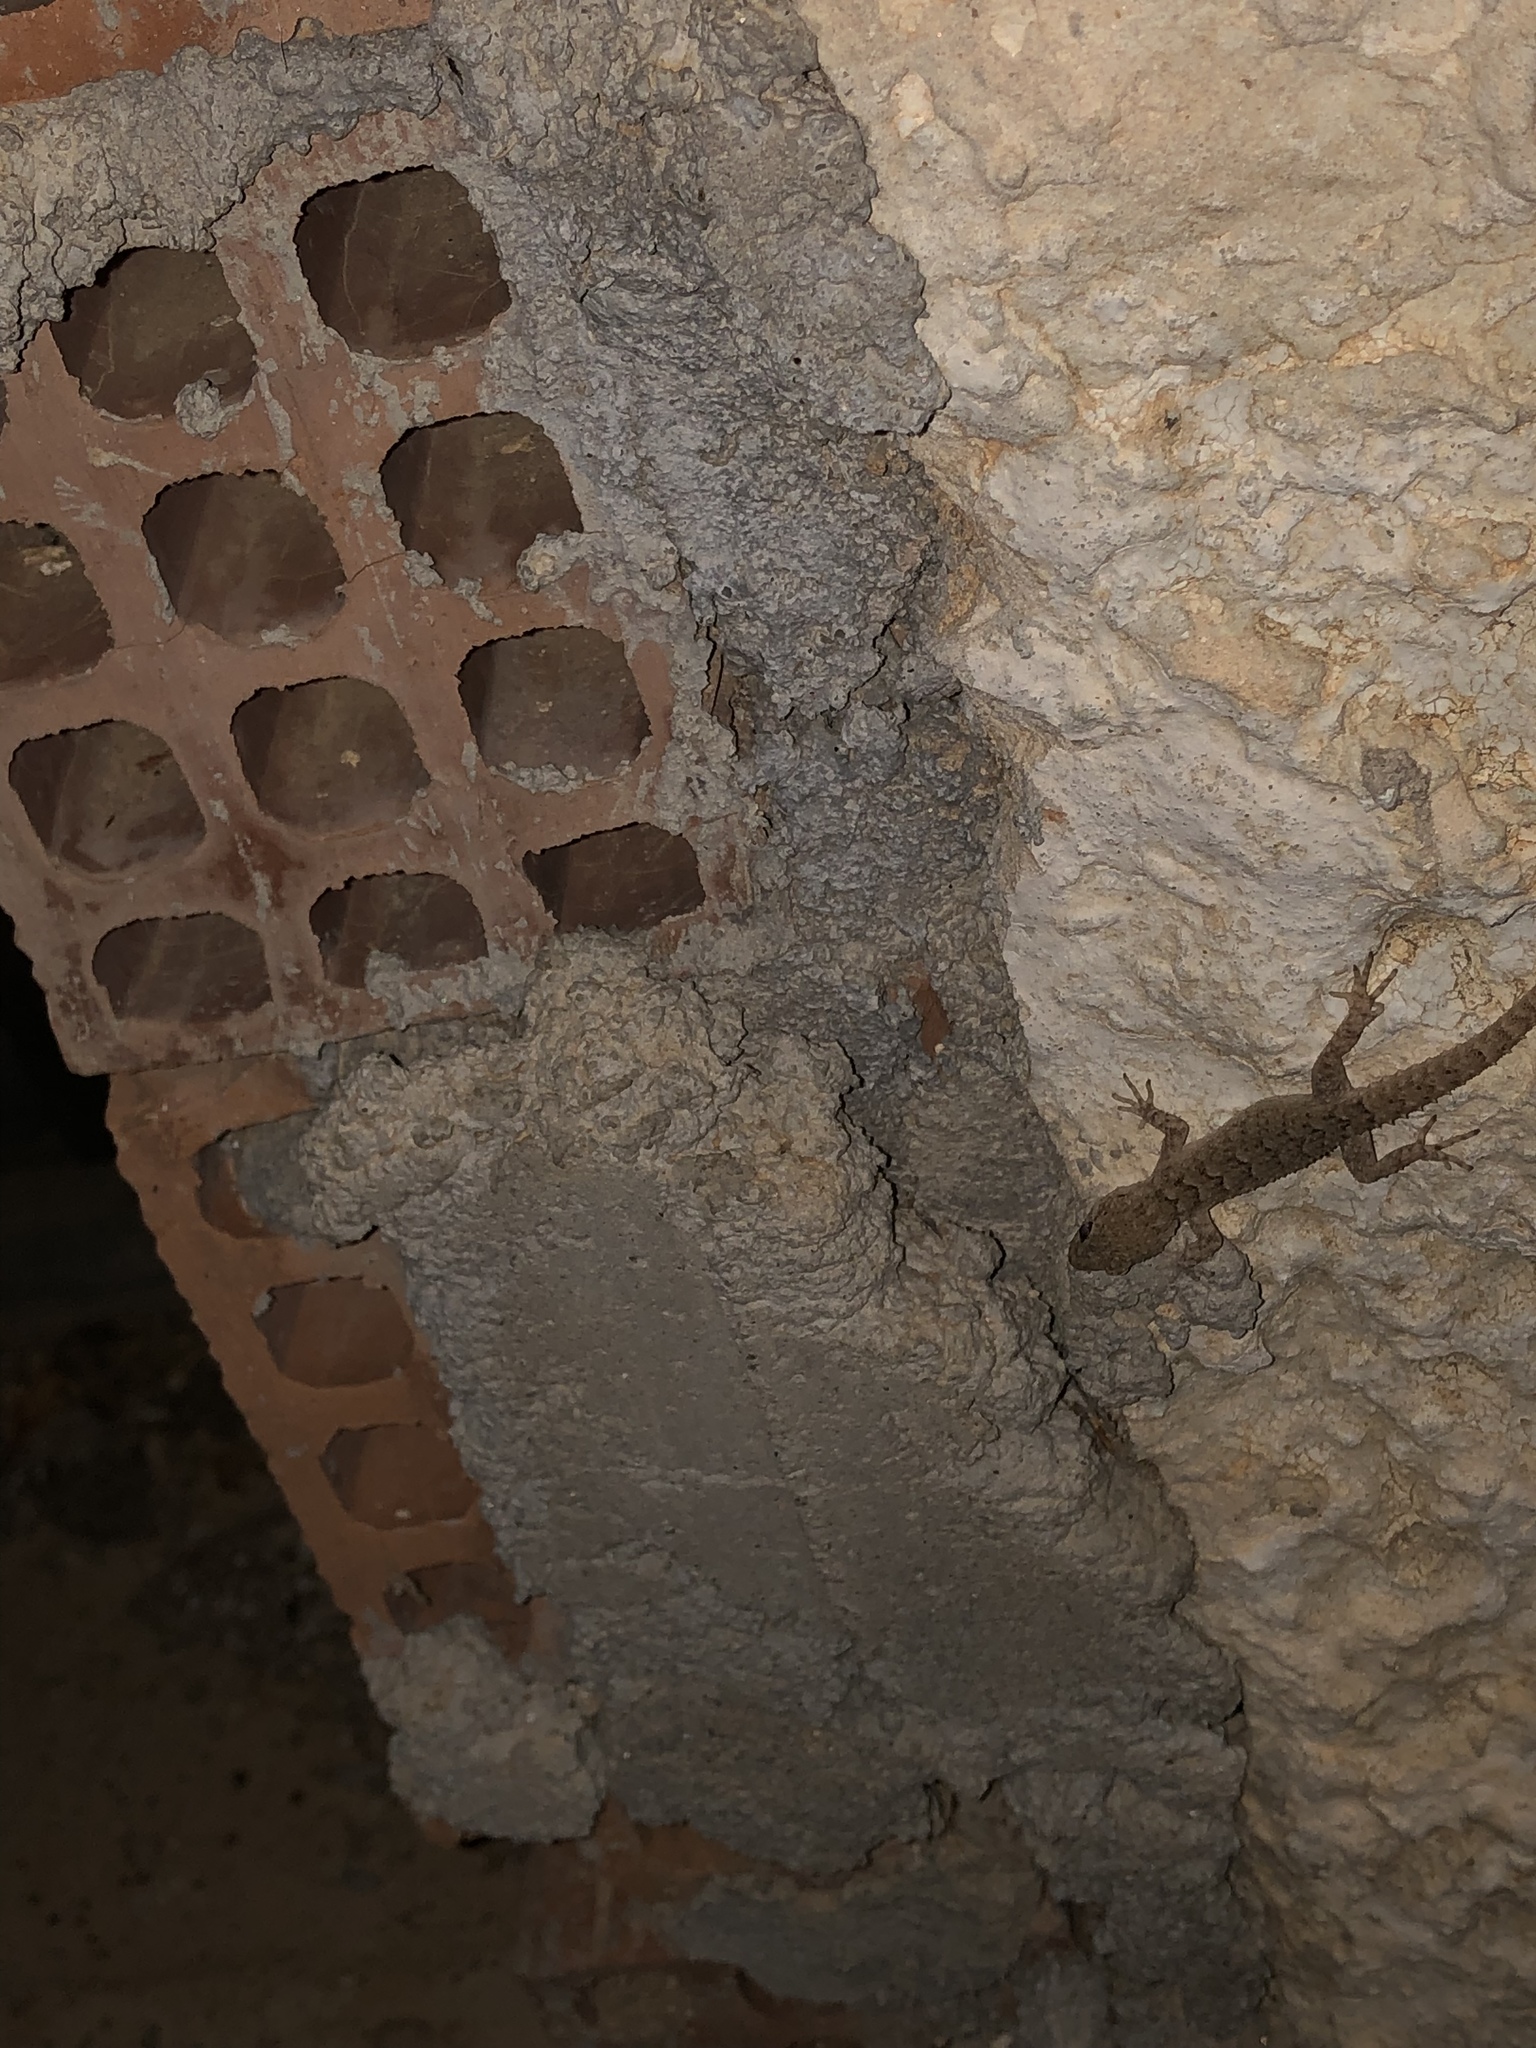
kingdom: Animalia
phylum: Chordata
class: Squamata
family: Gekkonidae
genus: Mediodactylus
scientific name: Mediodactylus kotschyi
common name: Kotschy's gecko
